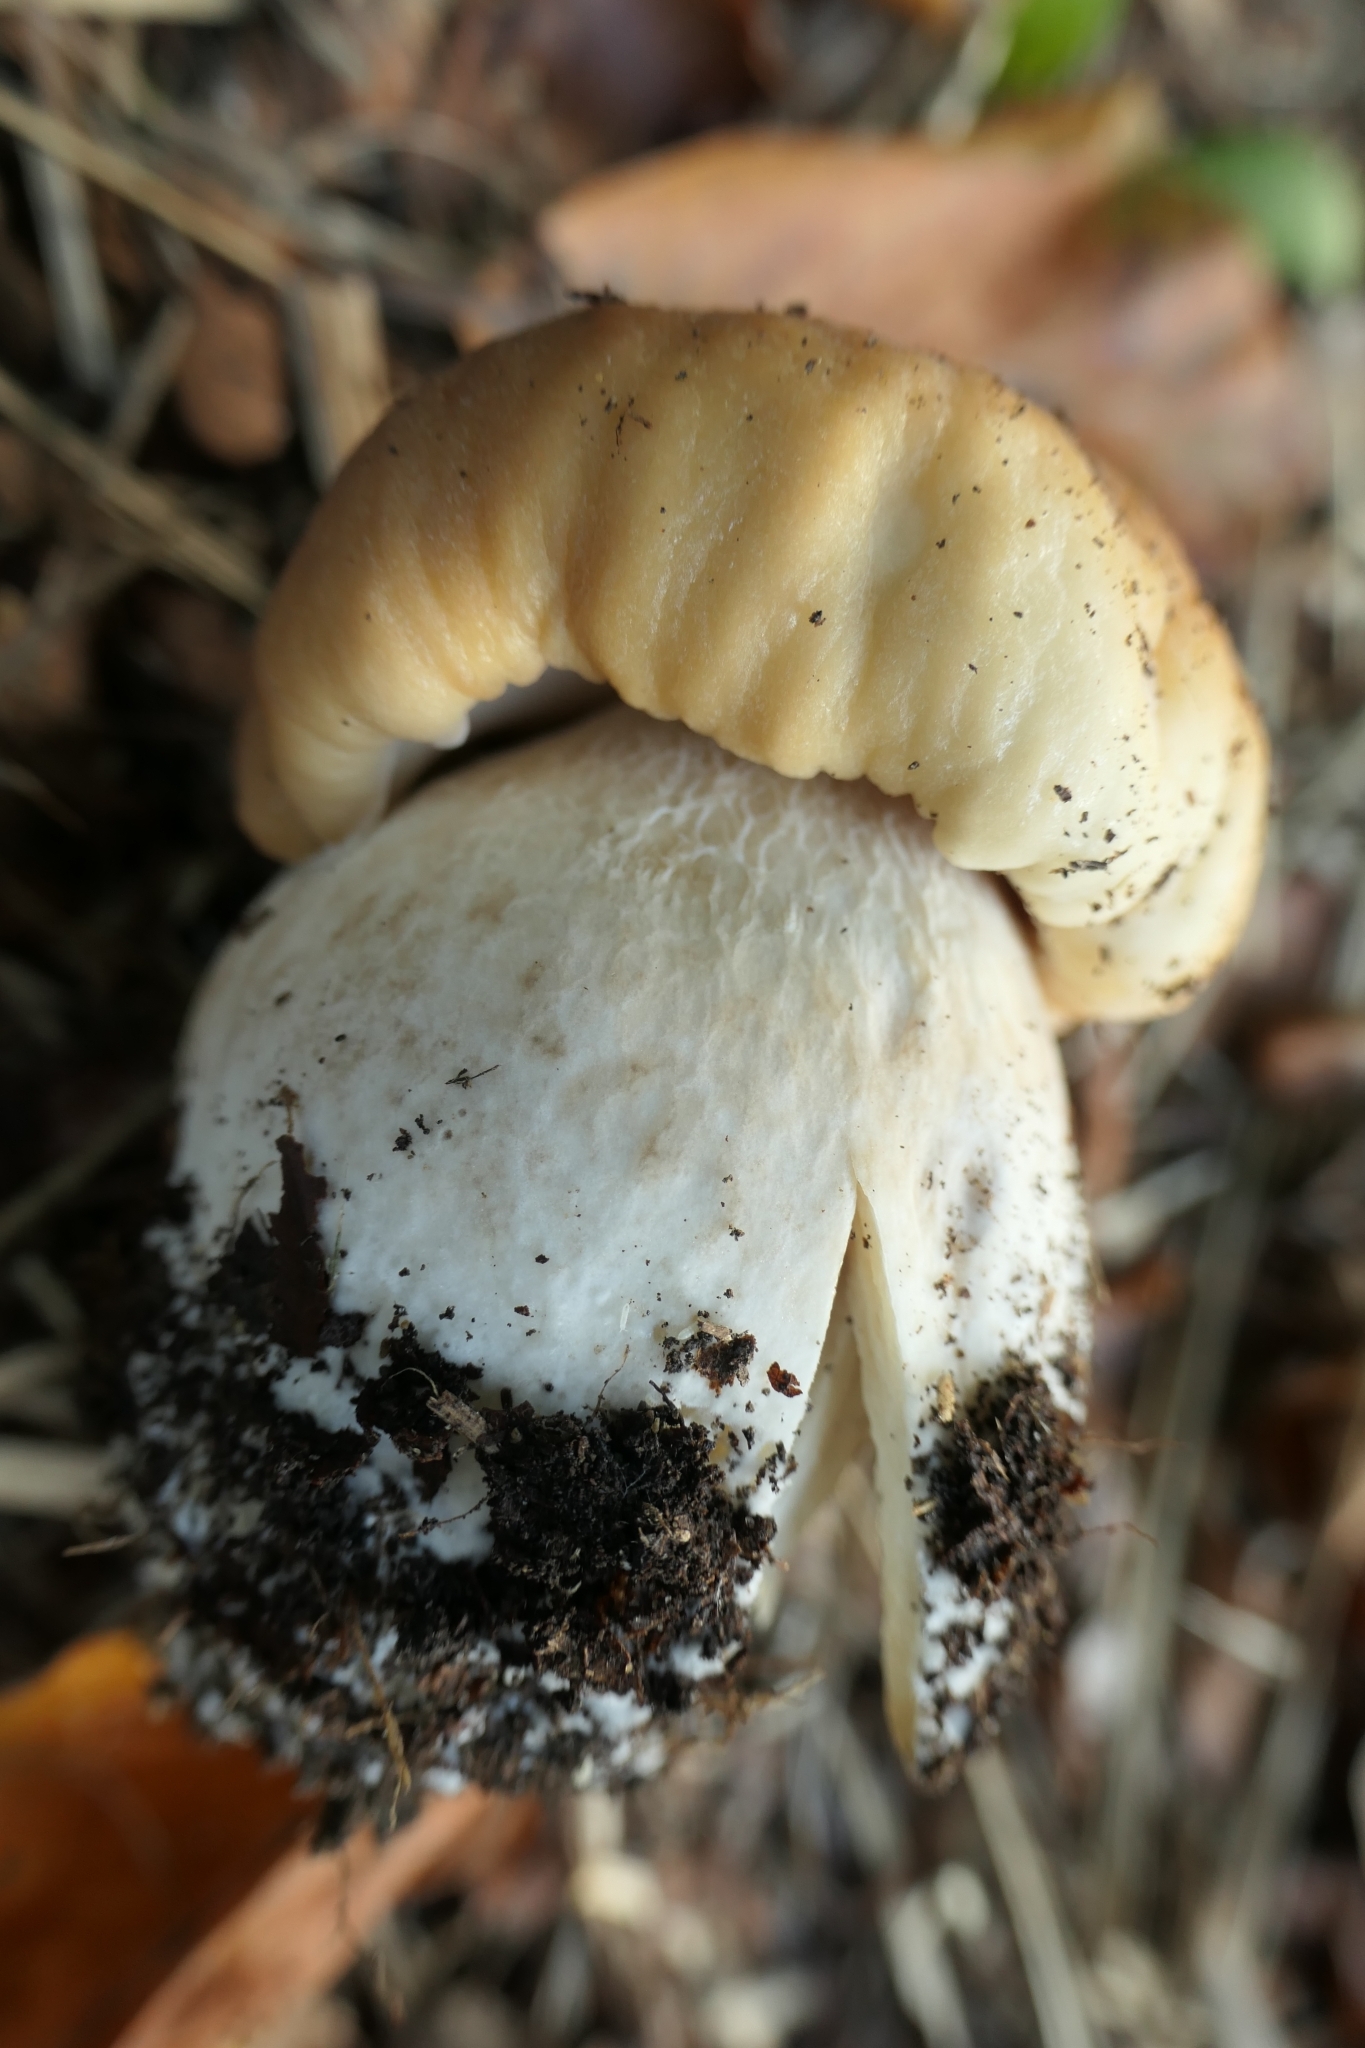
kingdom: Fungi
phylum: Basidiomycota
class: Agaricomycetes
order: Boletales
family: Boletaceae
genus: Boletus
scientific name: Boletus edulis
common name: Cep
